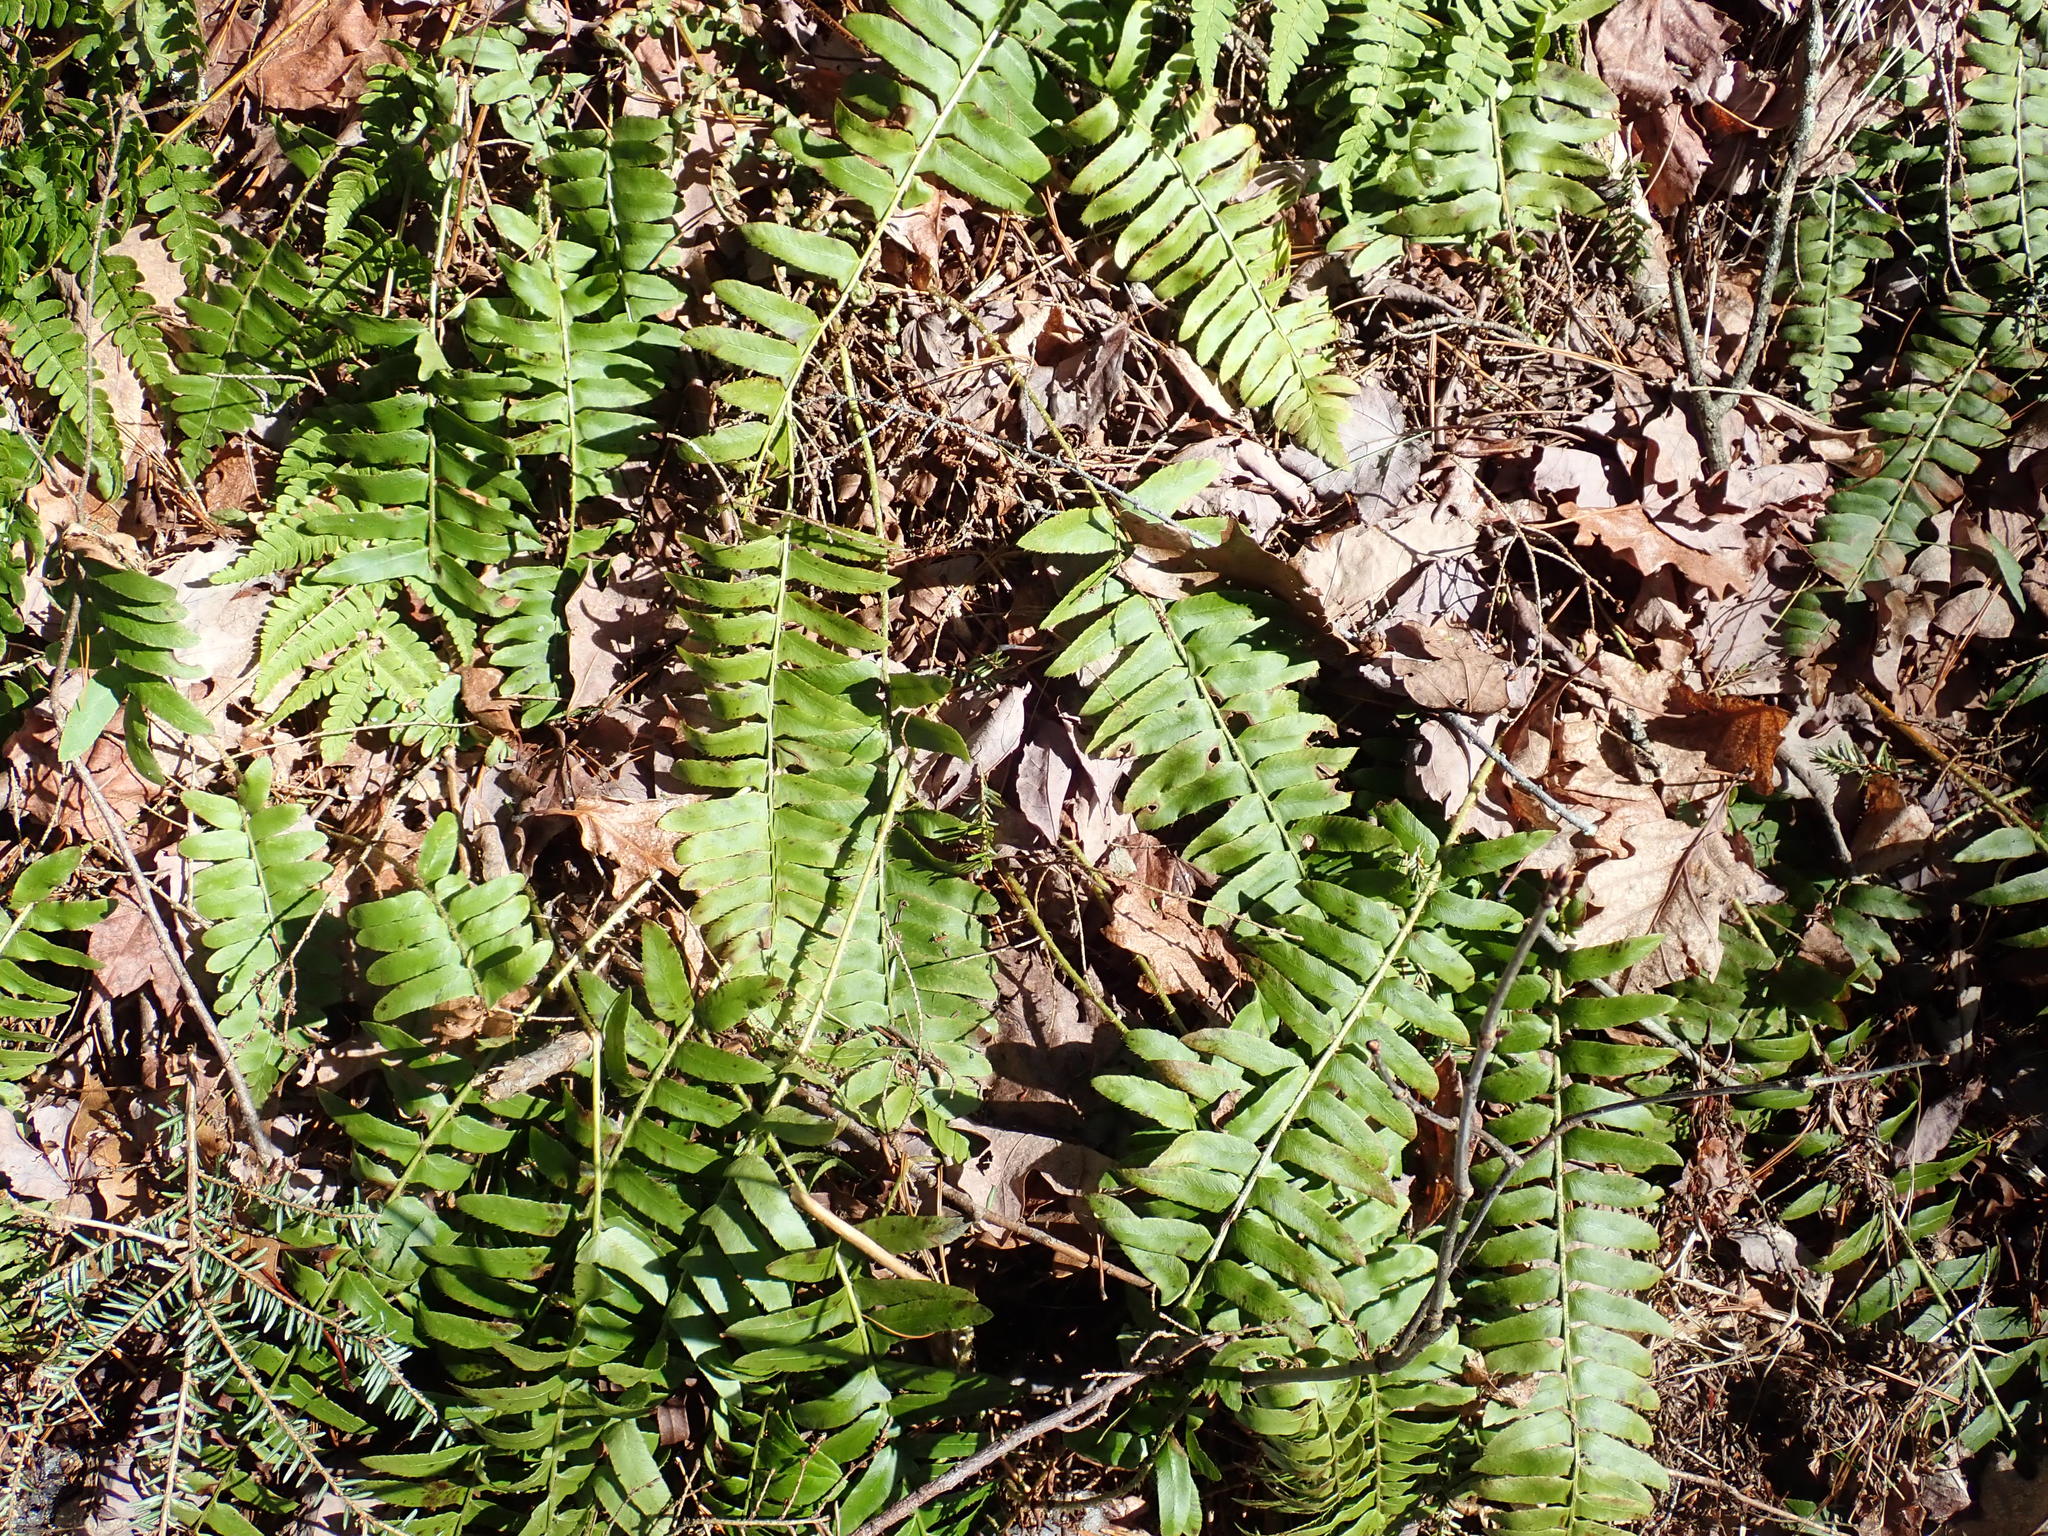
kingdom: Plantae
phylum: Tracheophyta
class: Polypodiopsida
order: Polypodiales
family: Dryopteridaceae
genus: Polystichum
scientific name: Polystichum acrostichoides
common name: Christmas fern
